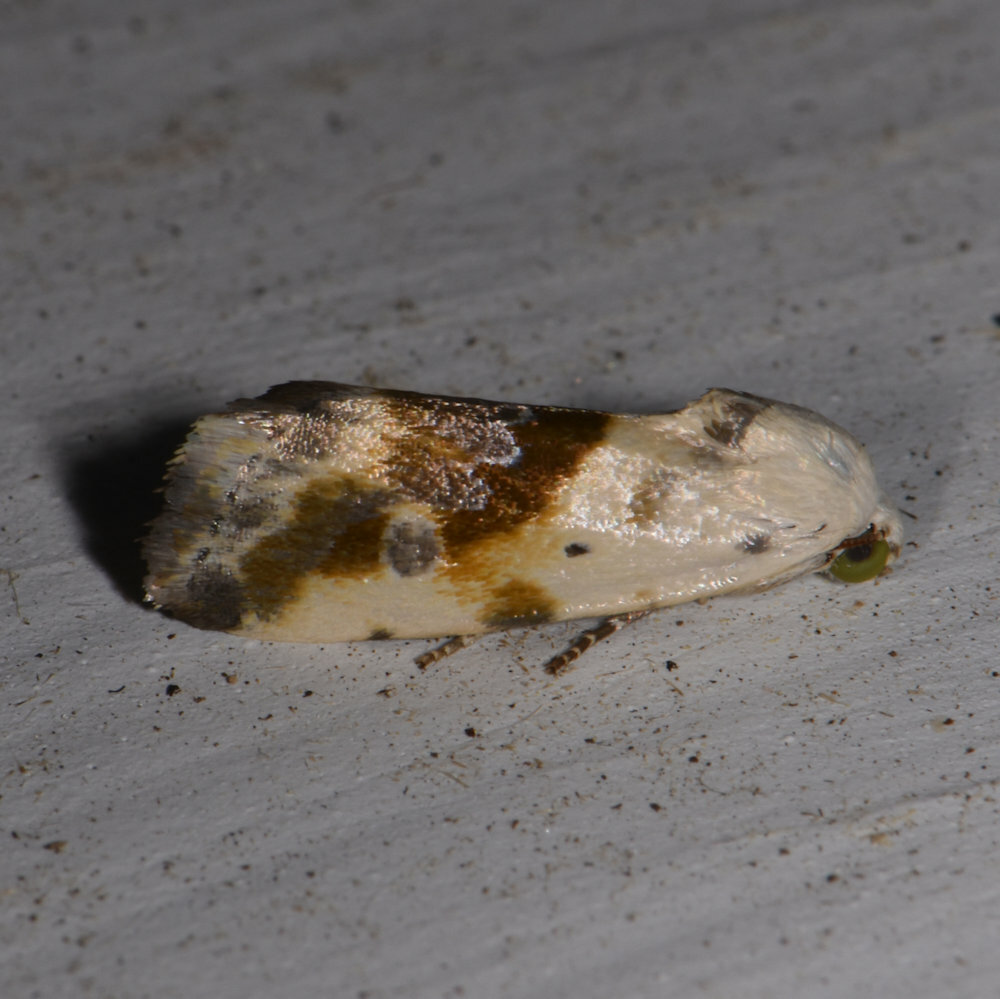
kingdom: Animalia
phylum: Arthropoda
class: Insecta
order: Lepidoptera
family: Noctuidae
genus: Acontia
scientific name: Acontia candefacta
